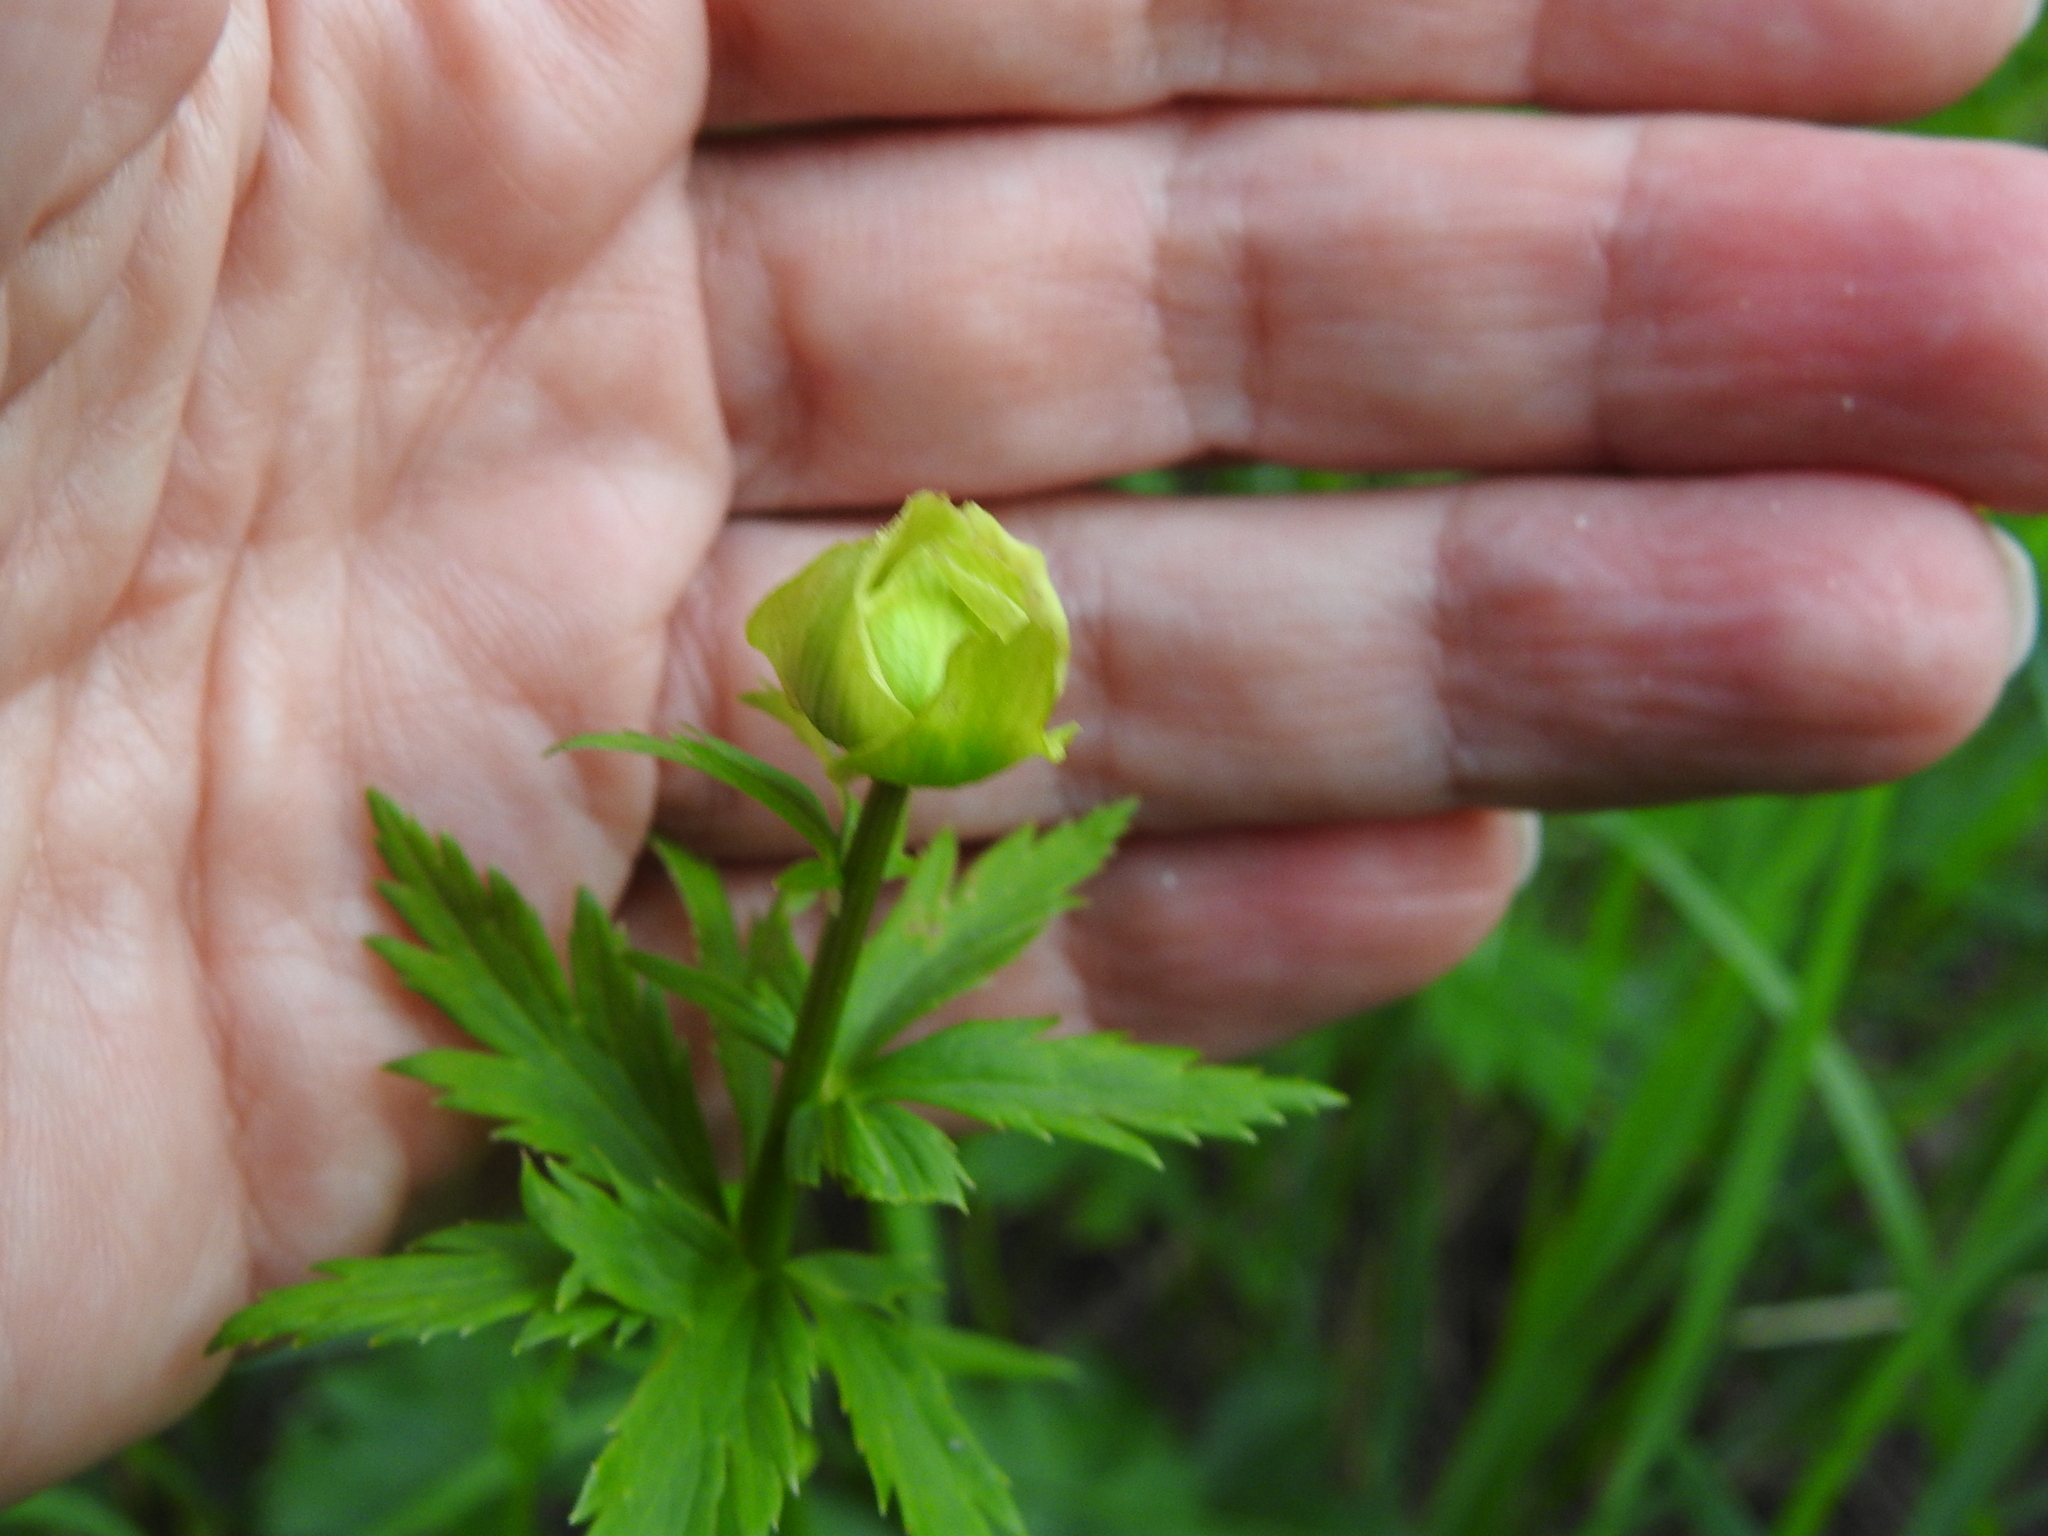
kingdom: Plantae
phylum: Tracheophyta
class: Magnoliopsida
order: Ranunculales
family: Ranunculaceae
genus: Trollius
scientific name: Trollius europaeus
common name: European globeflower
